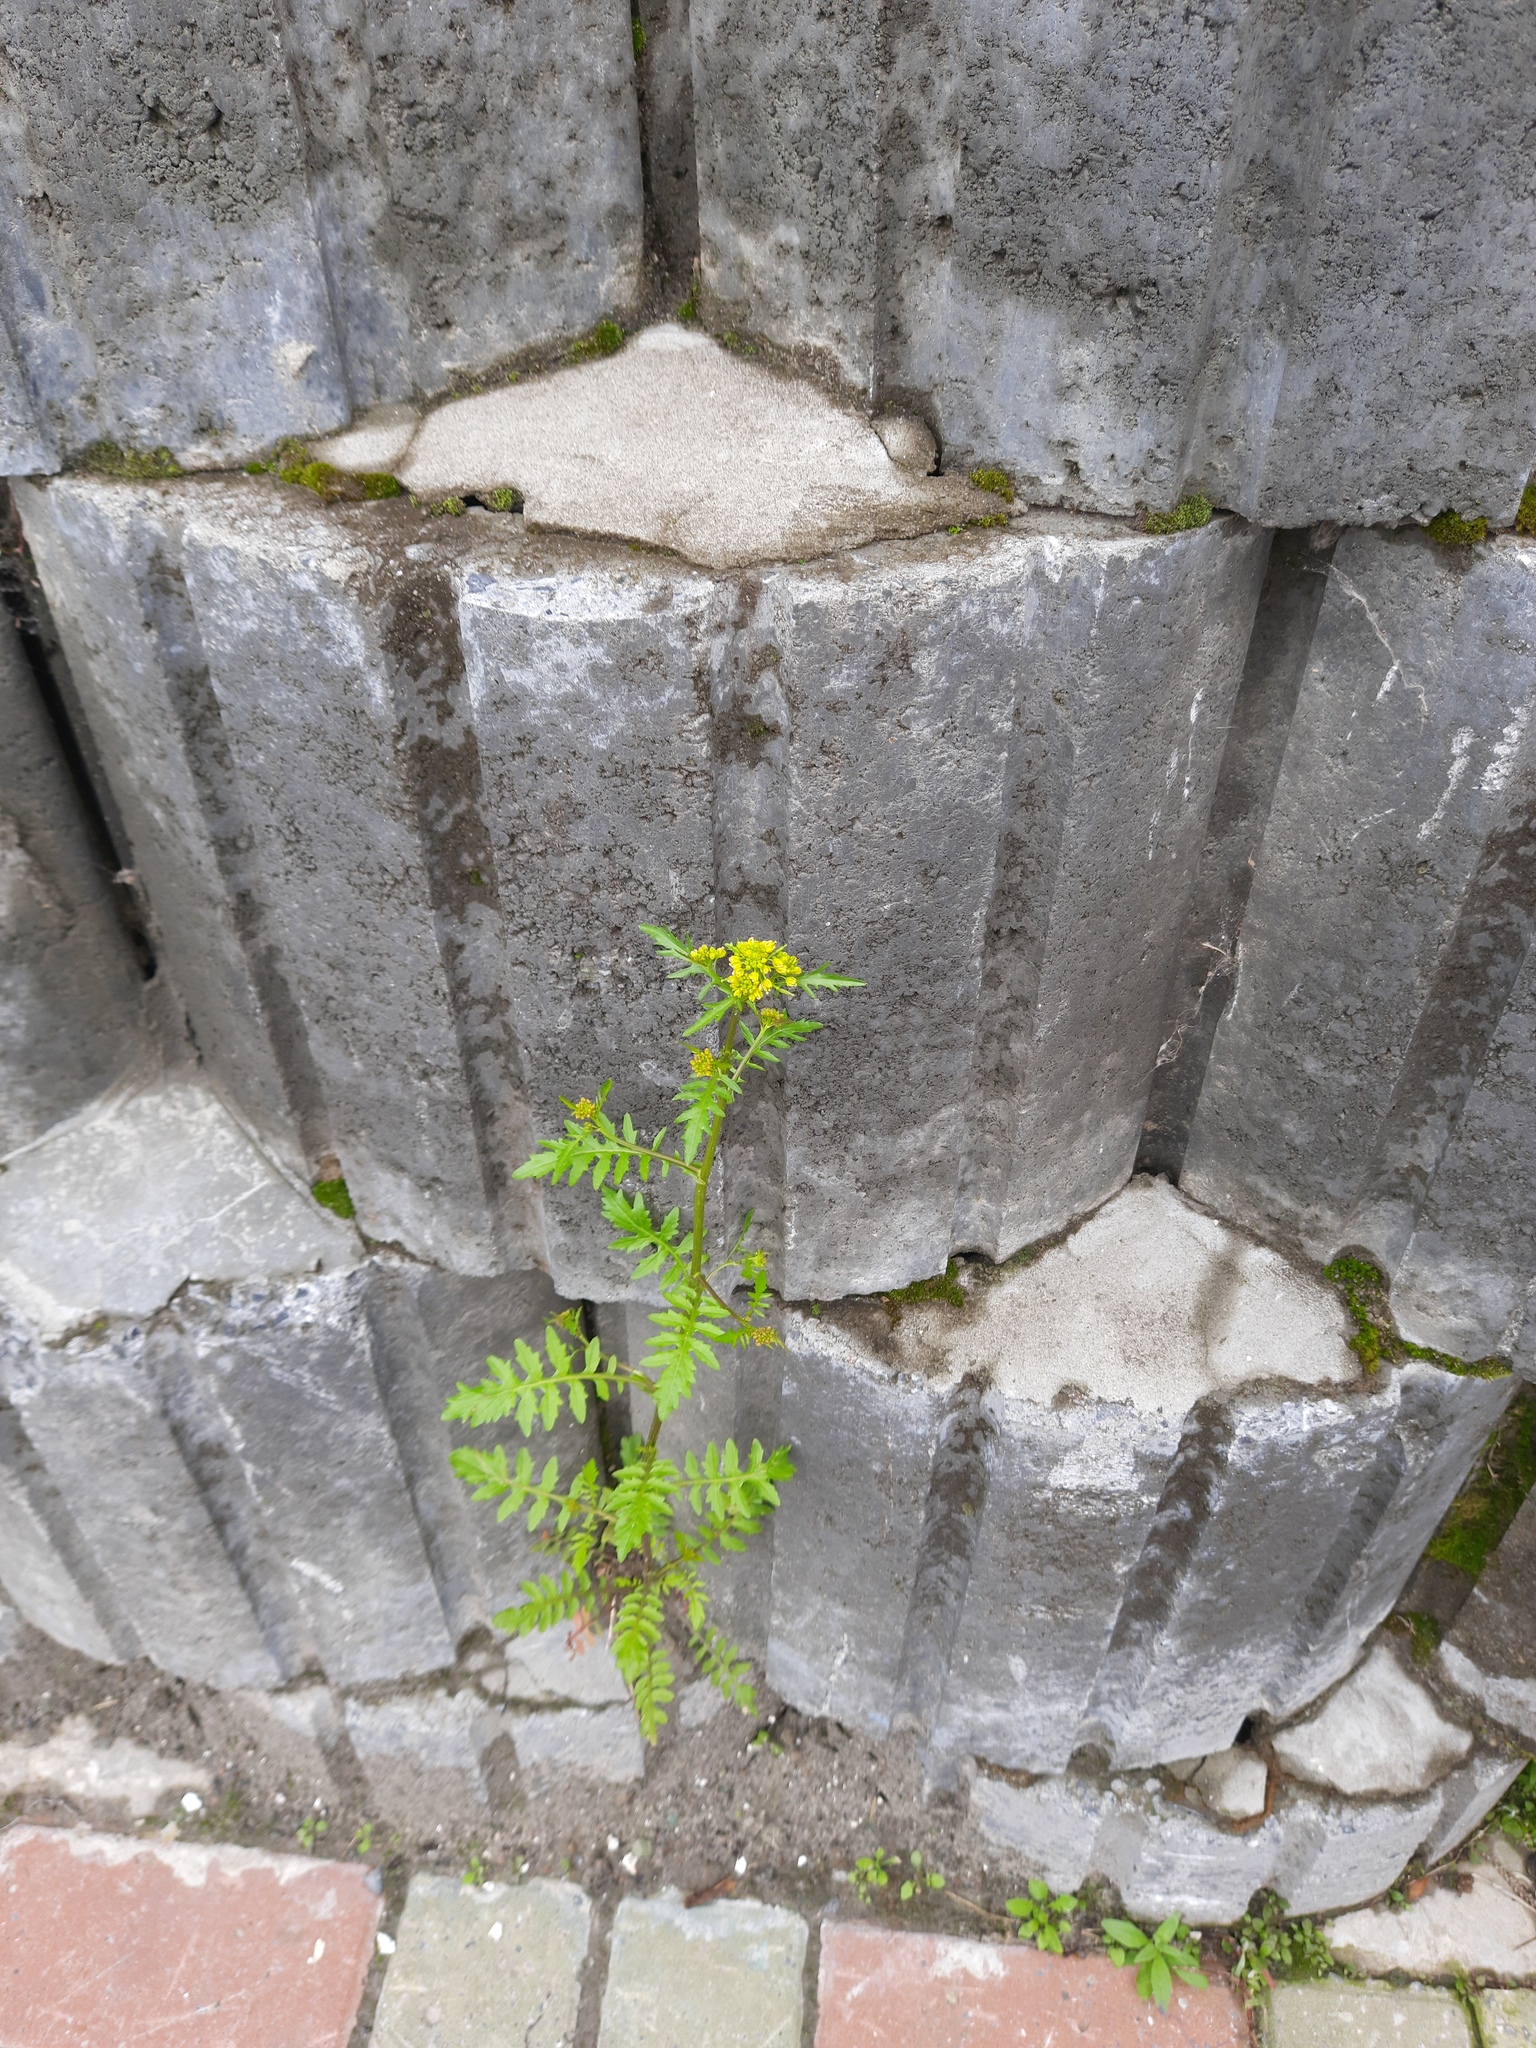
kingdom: Plantae
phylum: Tracheophyta
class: Magnoliopsida
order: Brassicales
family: Brassicaceae
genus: Rorippa
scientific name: Rorippa palustris
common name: Marsh yellow-cress
